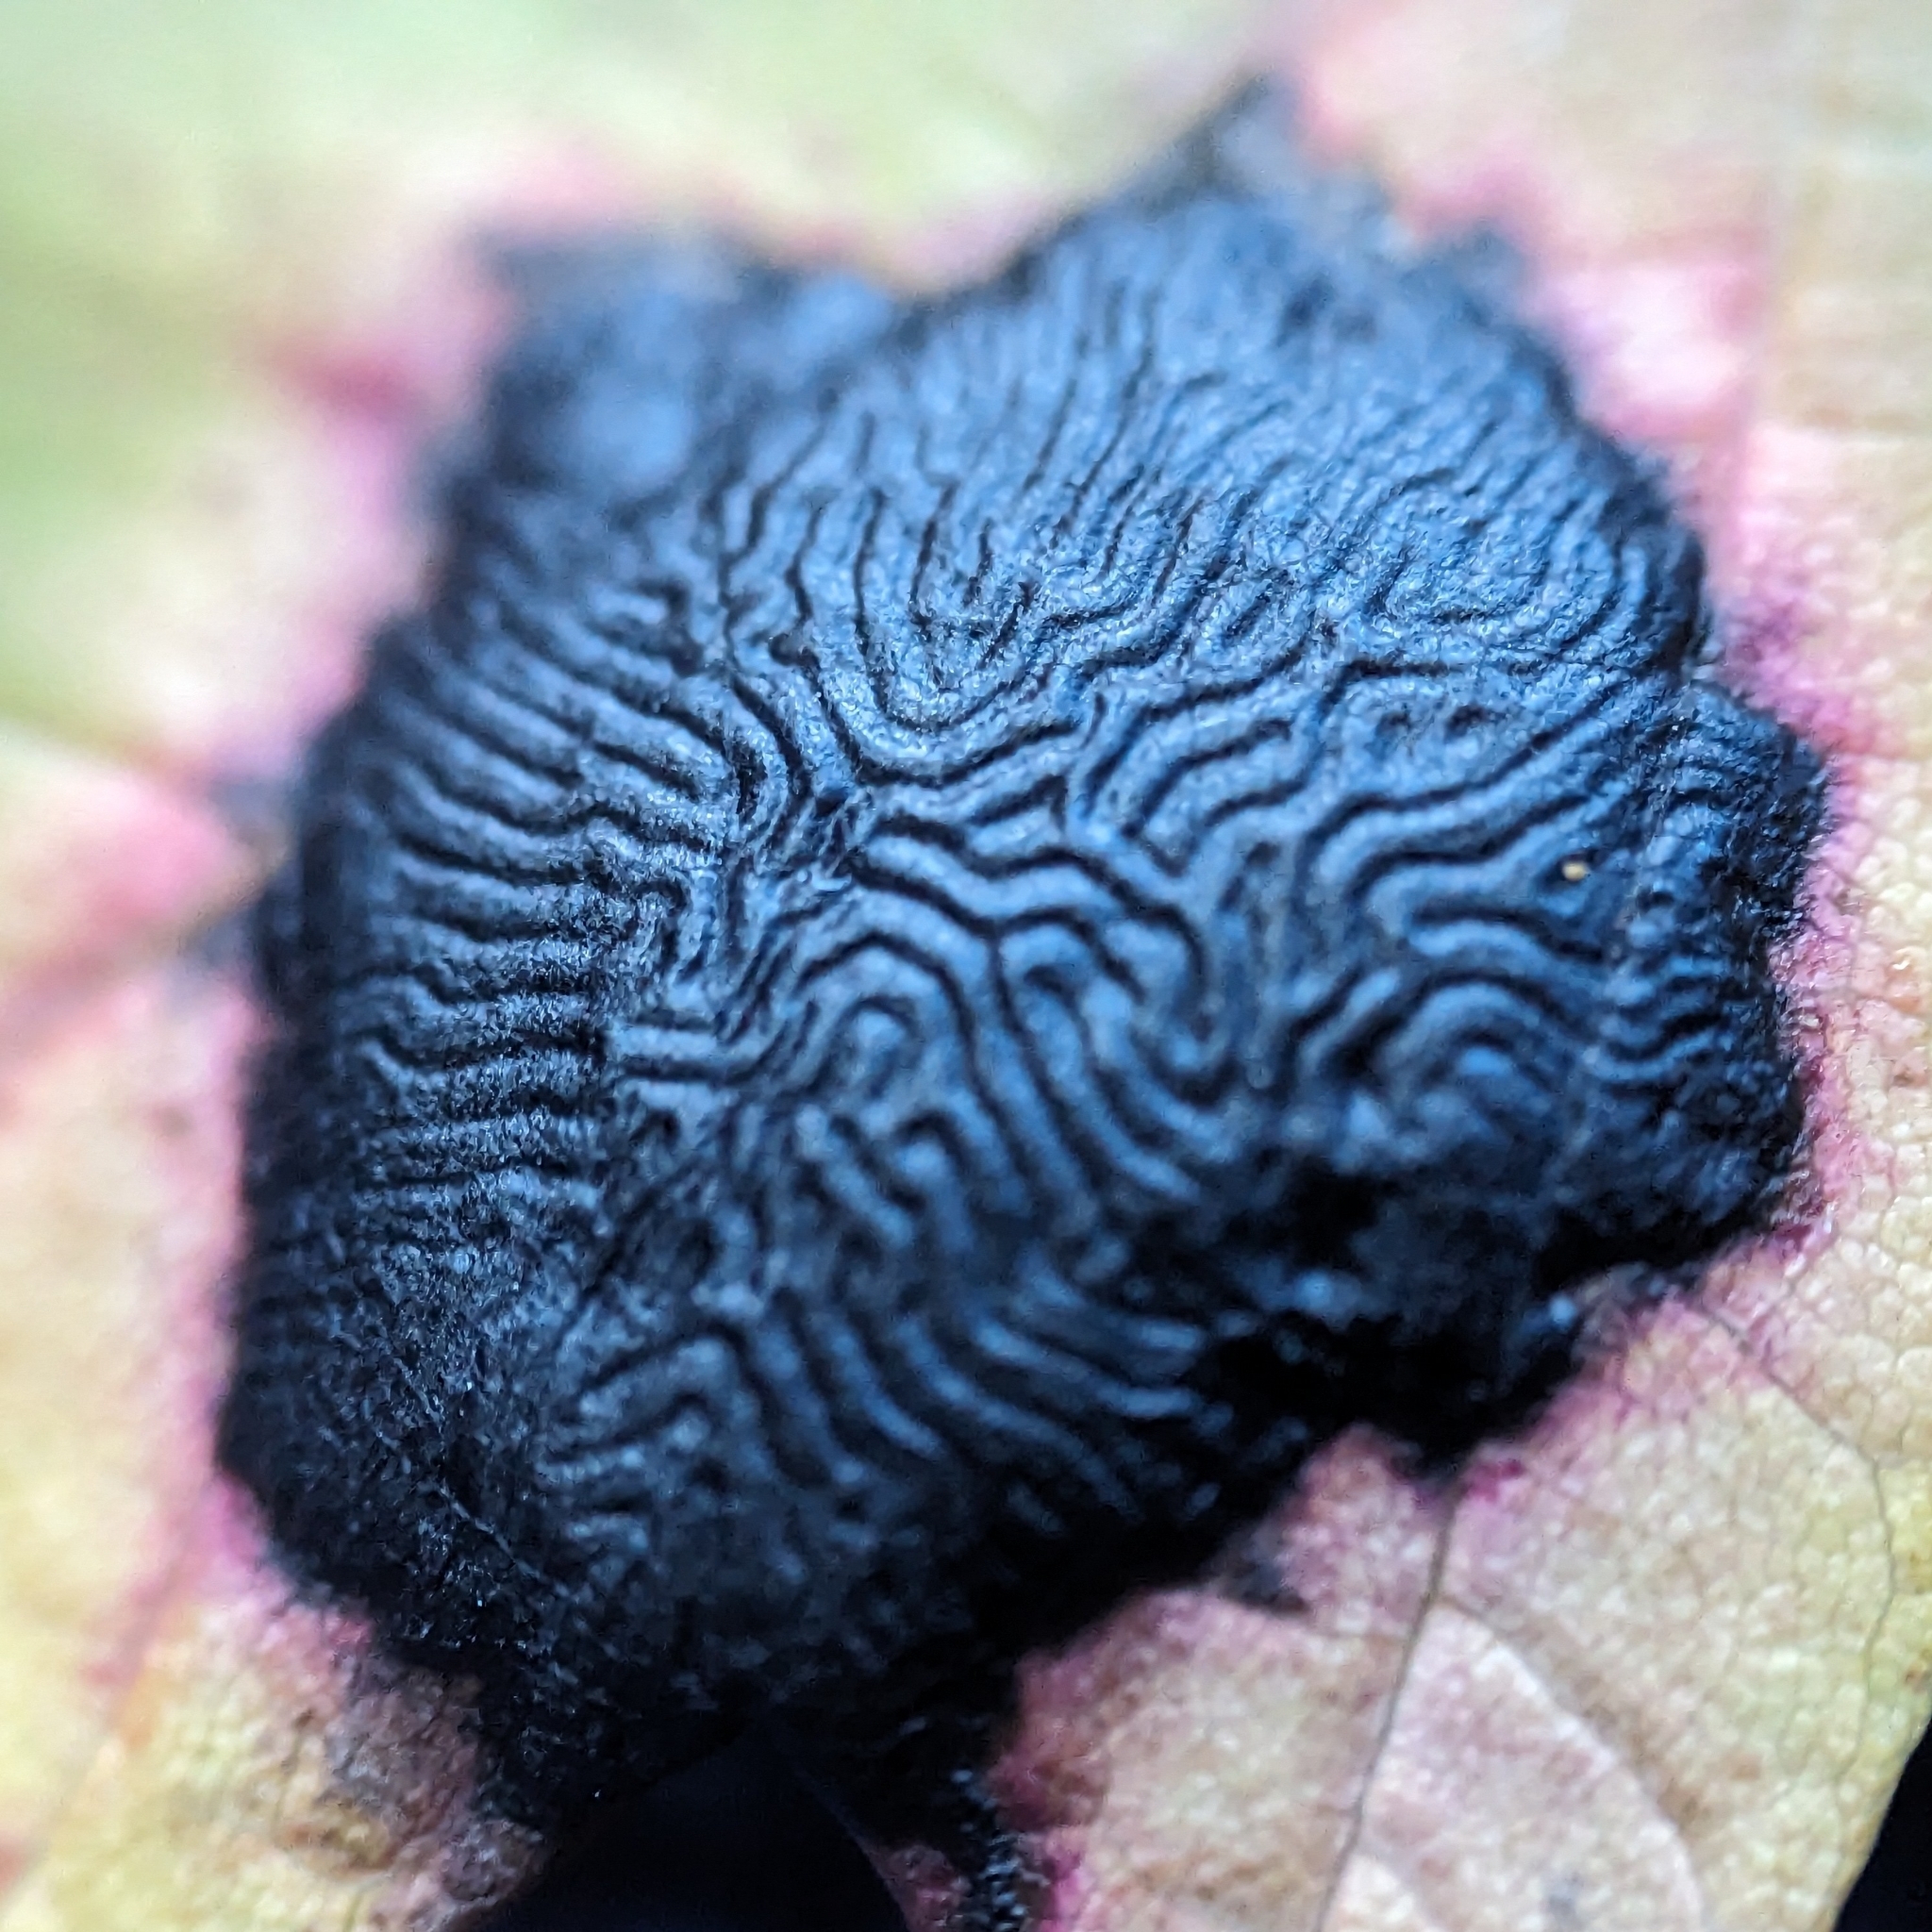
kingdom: Fungi
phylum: Ascomycota
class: Leotiomycetes
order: Rhytismatales
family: Rhytismataceae
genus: Rhytisma
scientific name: Rhytisma americanum
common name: American tar spot
